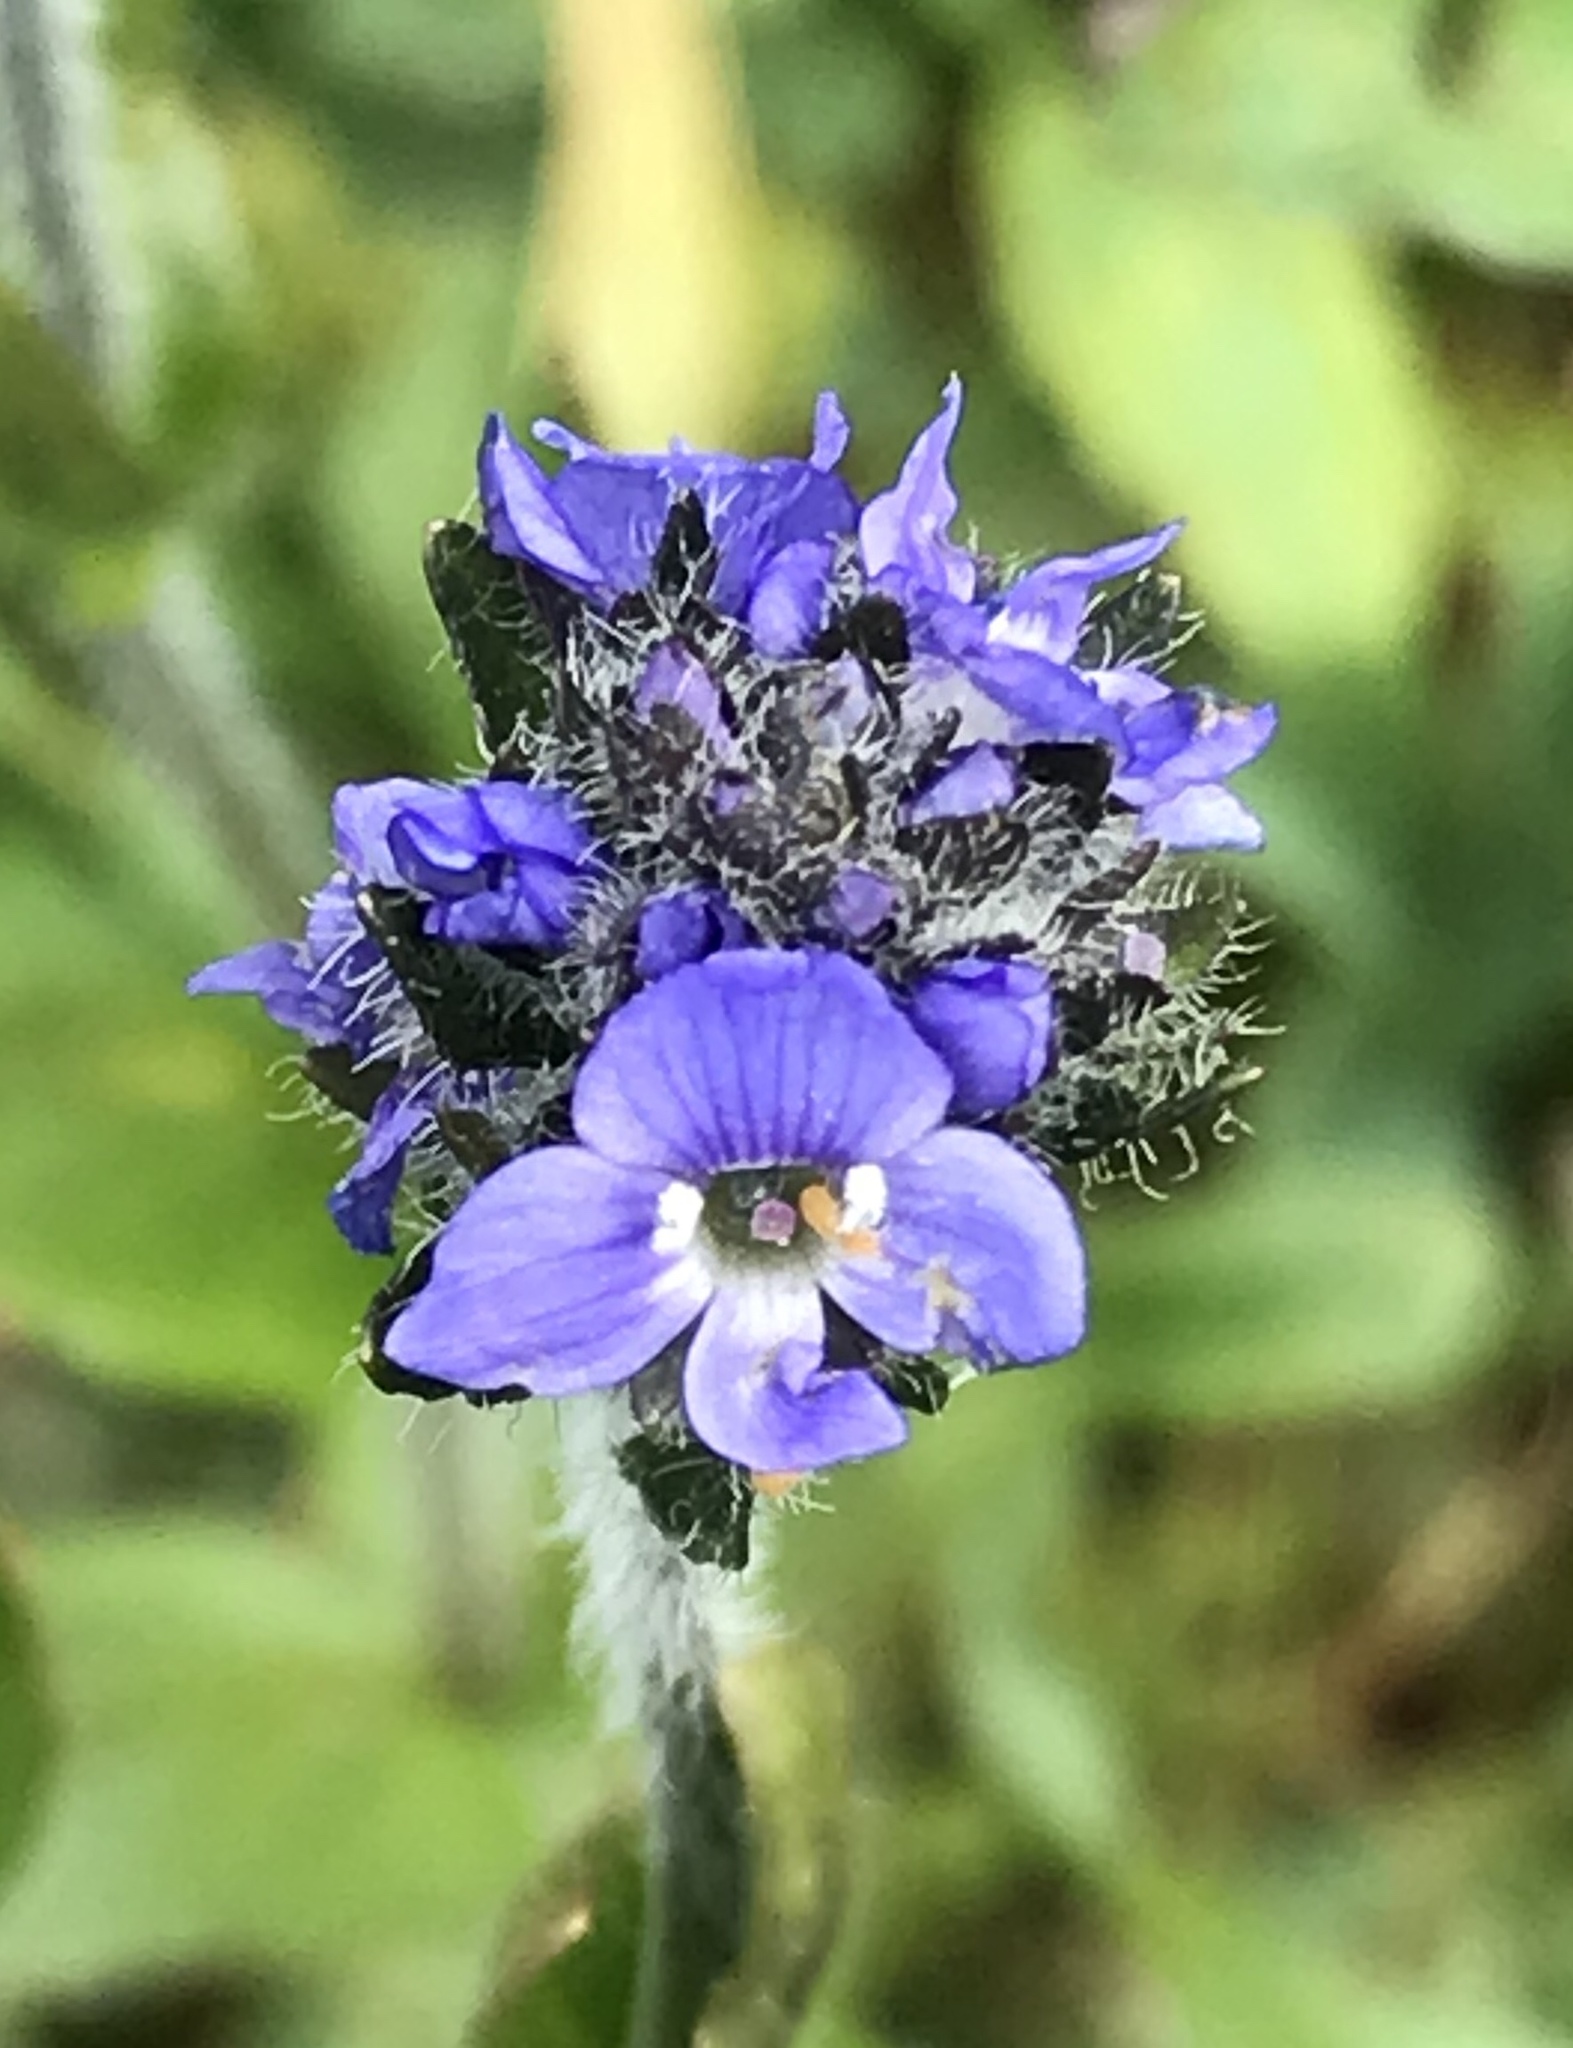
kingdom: Plantae
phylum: Tracheophyta
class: Magnoliopsida
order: Lamiales
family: Plantaginaceae
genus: Veronica
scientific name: Veronica wormskjoldii
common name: American alpine speedwell
